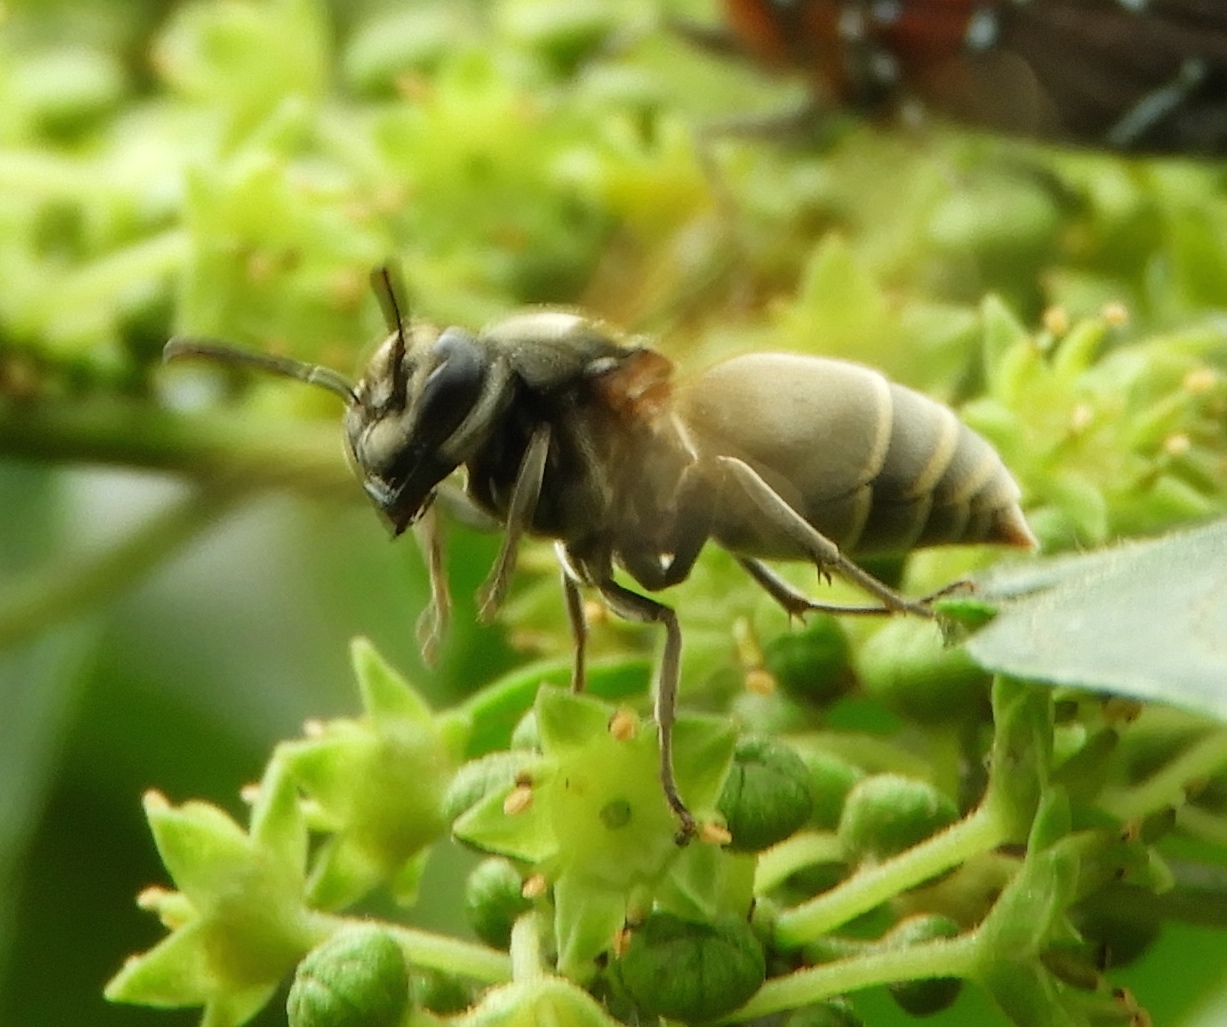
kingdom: Animalia
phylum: Arthropoda
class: Insecta
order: Hymenoptera
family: Vespidae
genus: Brachygastra
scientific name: Brachygastra mellifica
